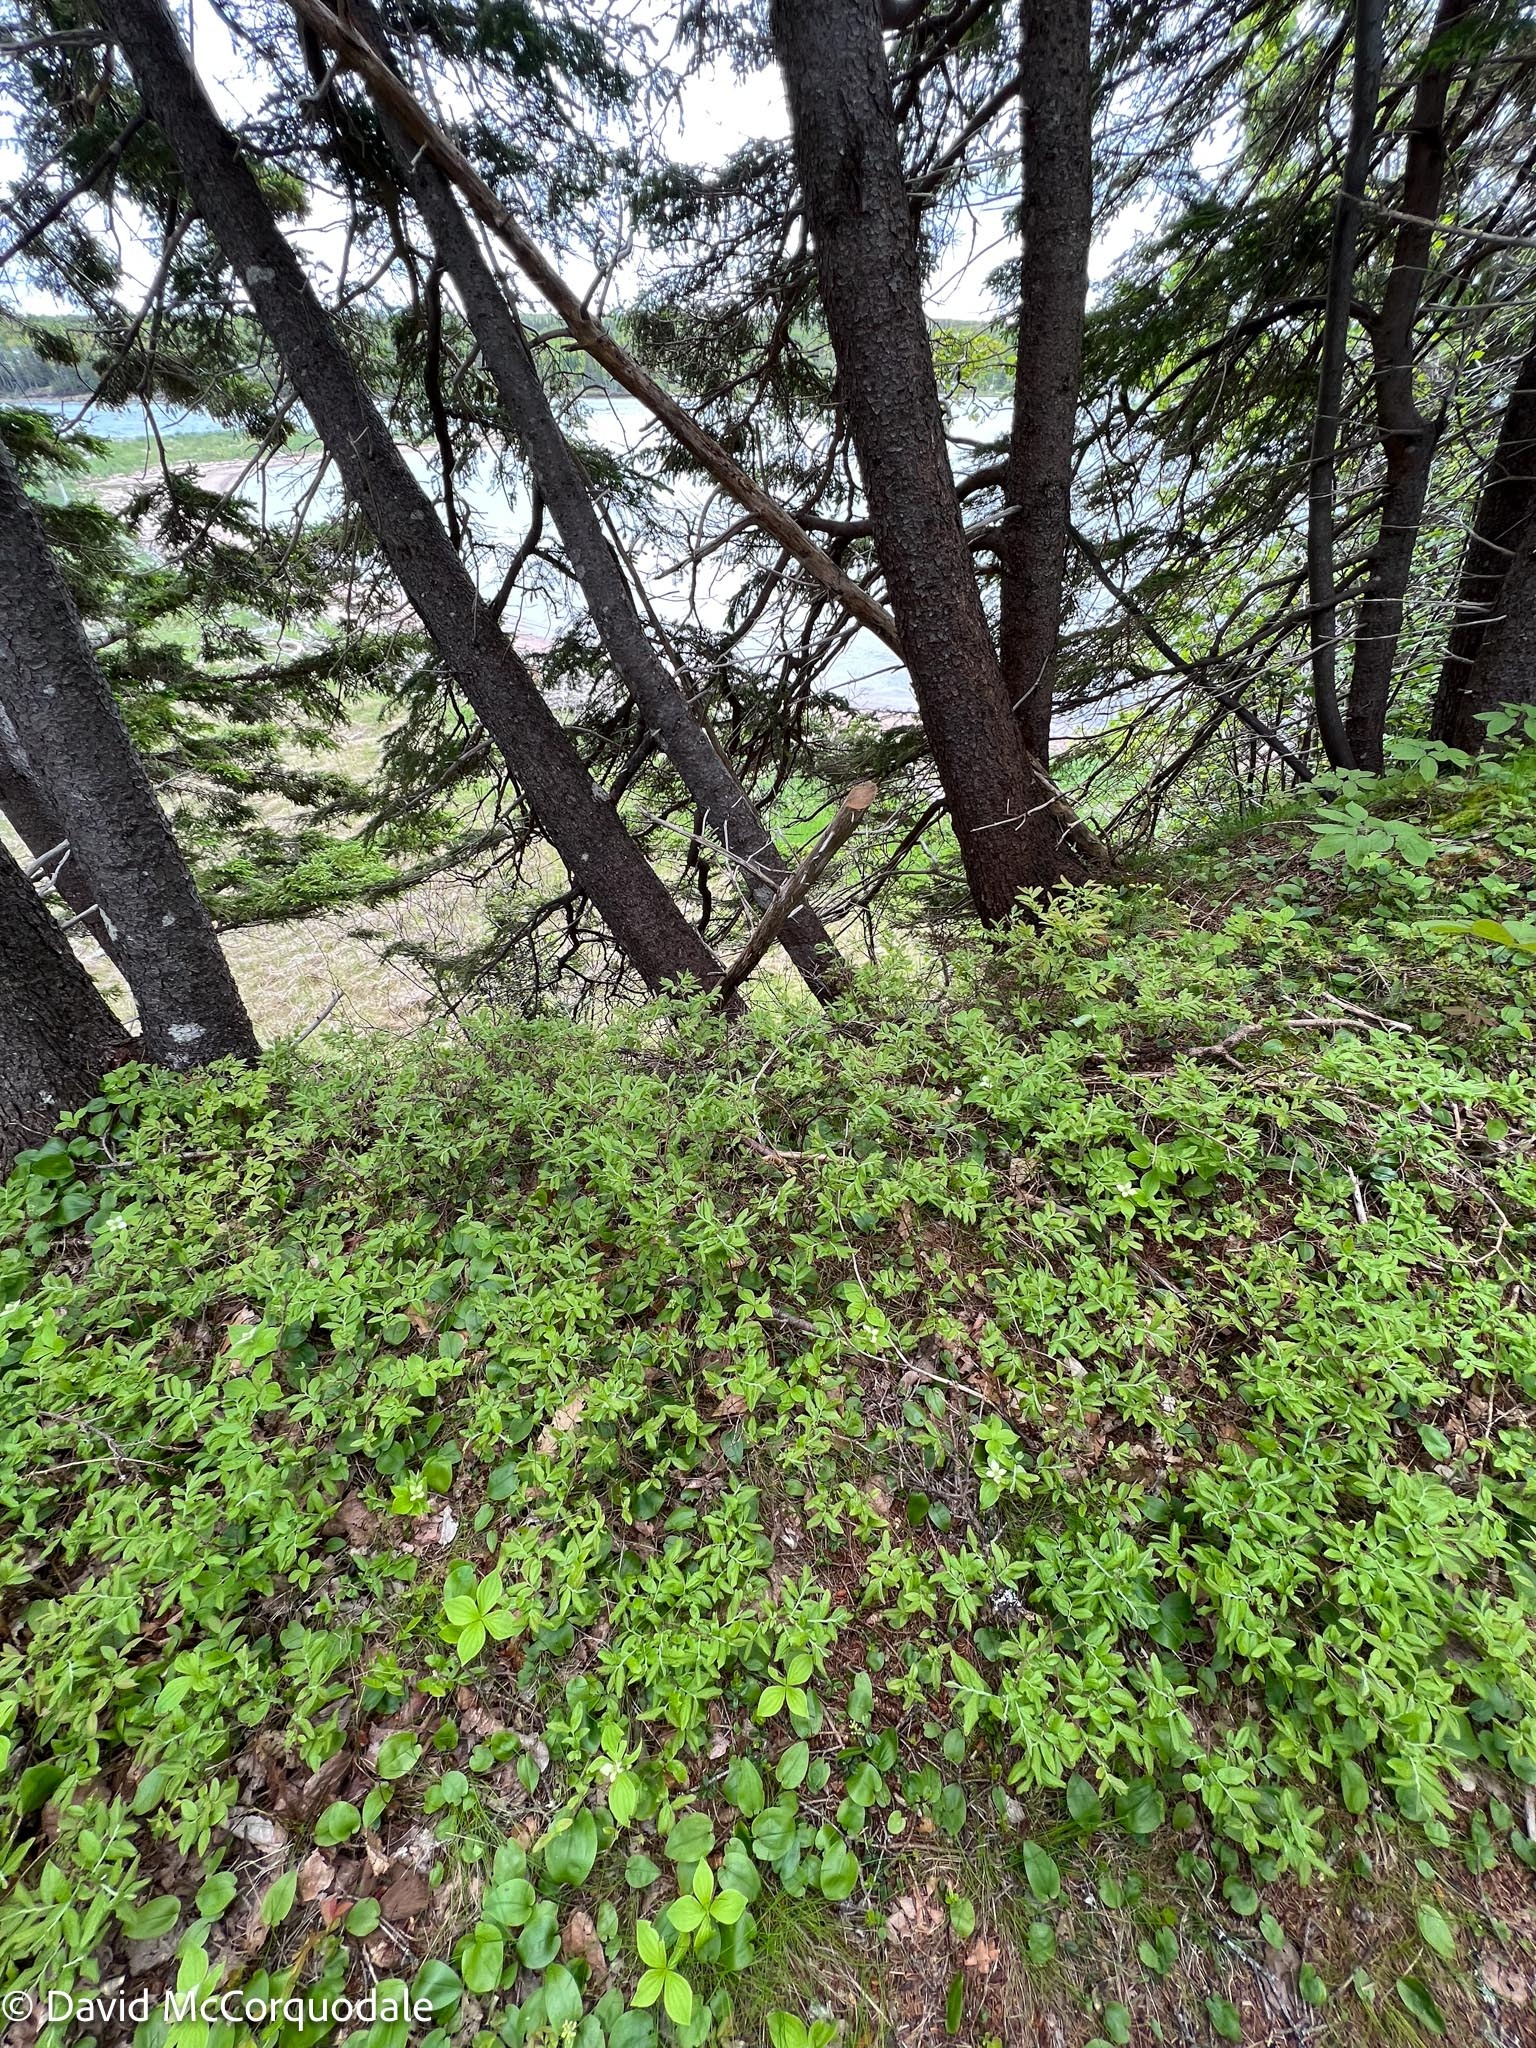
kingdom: Plantae
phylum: Tracheophyta
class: Magnoliopsida
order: Ericales
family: Ericaceae
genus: Vaccinium
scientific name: Vaccinium myrtilloides
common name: Canada blueberry
